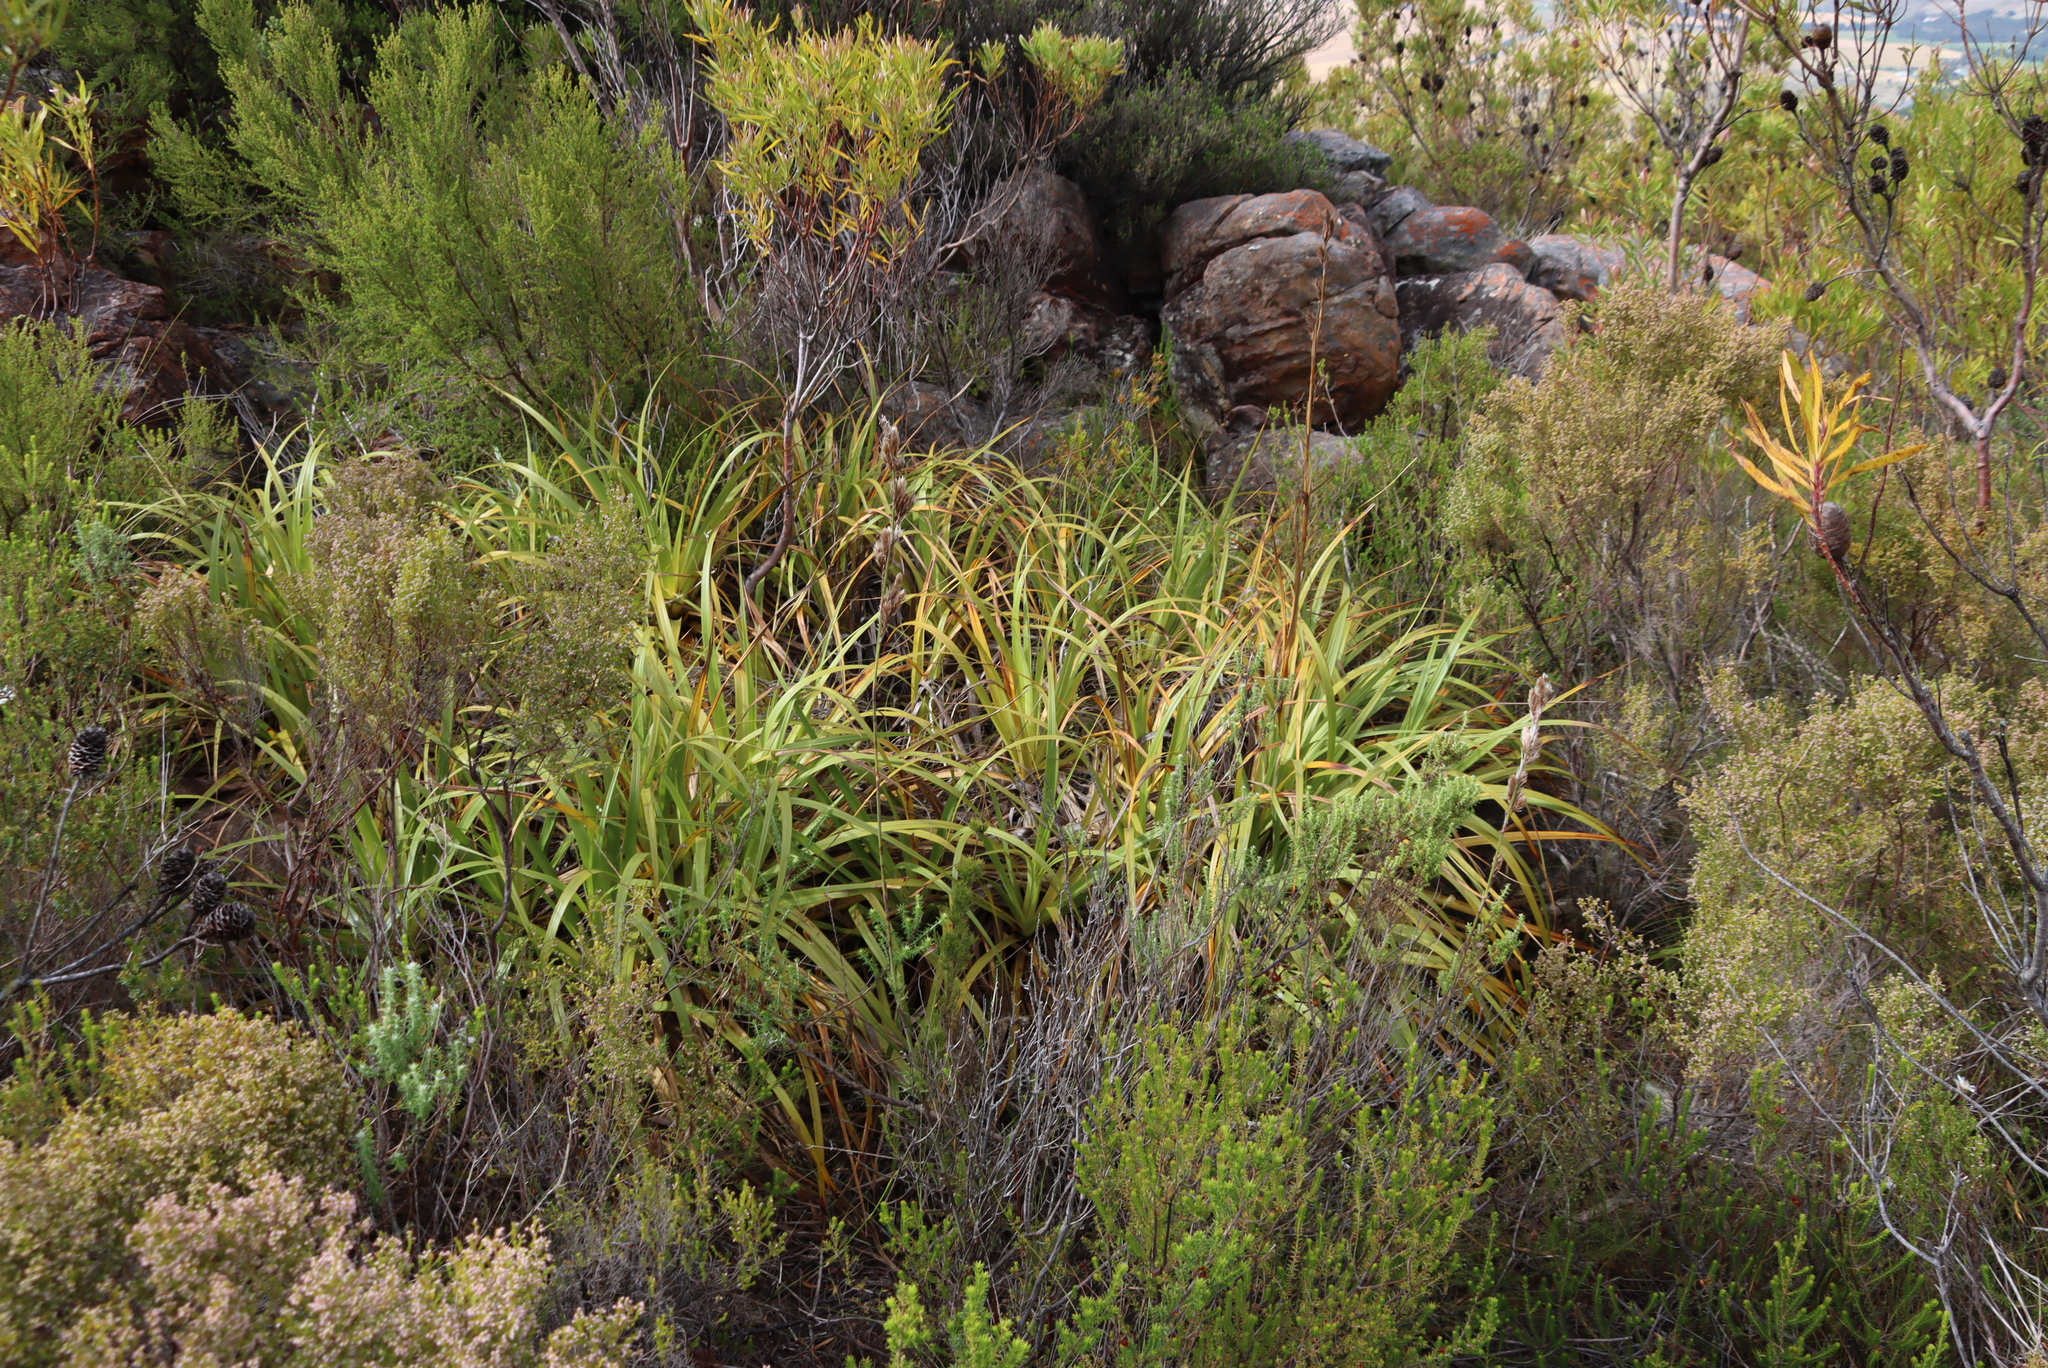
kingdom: Plantae
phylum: Tracheophyta
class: Liliopsida
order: Poales
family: Cyperaceae
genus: Tetraria
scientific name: Tetraria thermalis
